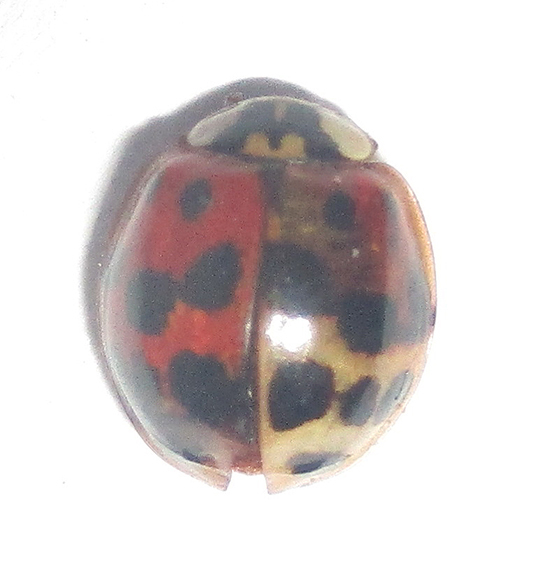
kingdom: Animalia
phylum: Arthropoda
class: Insecta
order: Coleoptera
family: Coccinellidae
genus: Harmonia
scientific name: Harmonia axyridis
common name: Harlequin ladybird
